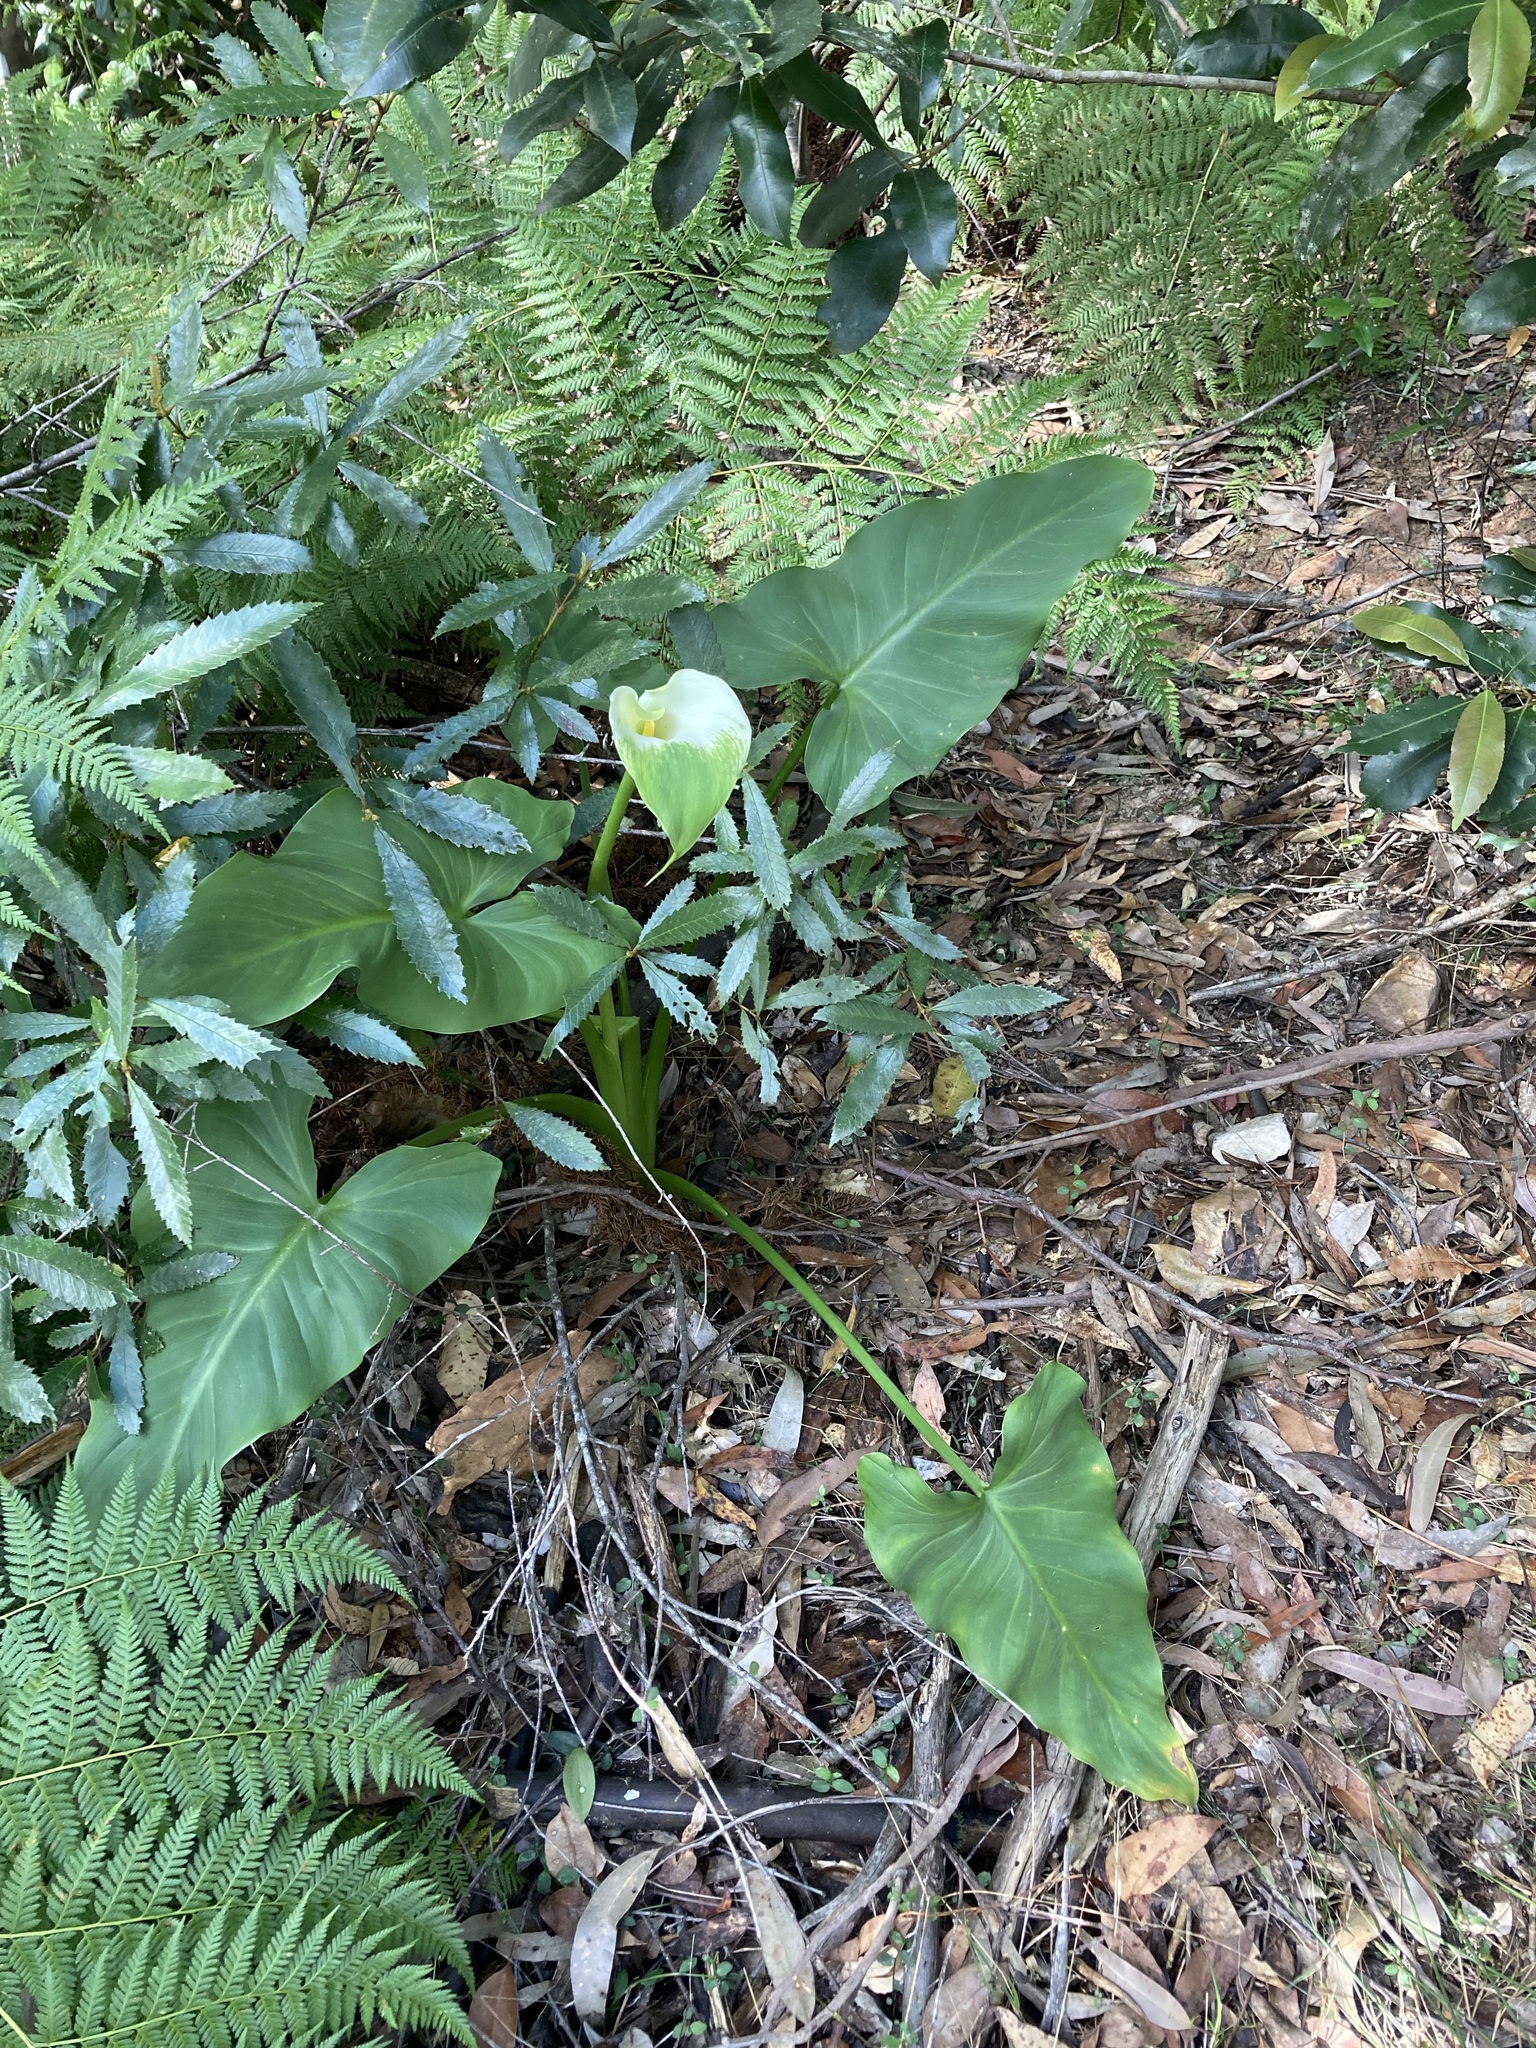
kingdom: Plantae
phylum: Tracheophyta
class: Liliopsida
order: Alismatales
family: Araceae
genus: Zantedeschia
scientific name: Zantedeschia aethiopica
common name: Altar-lily
